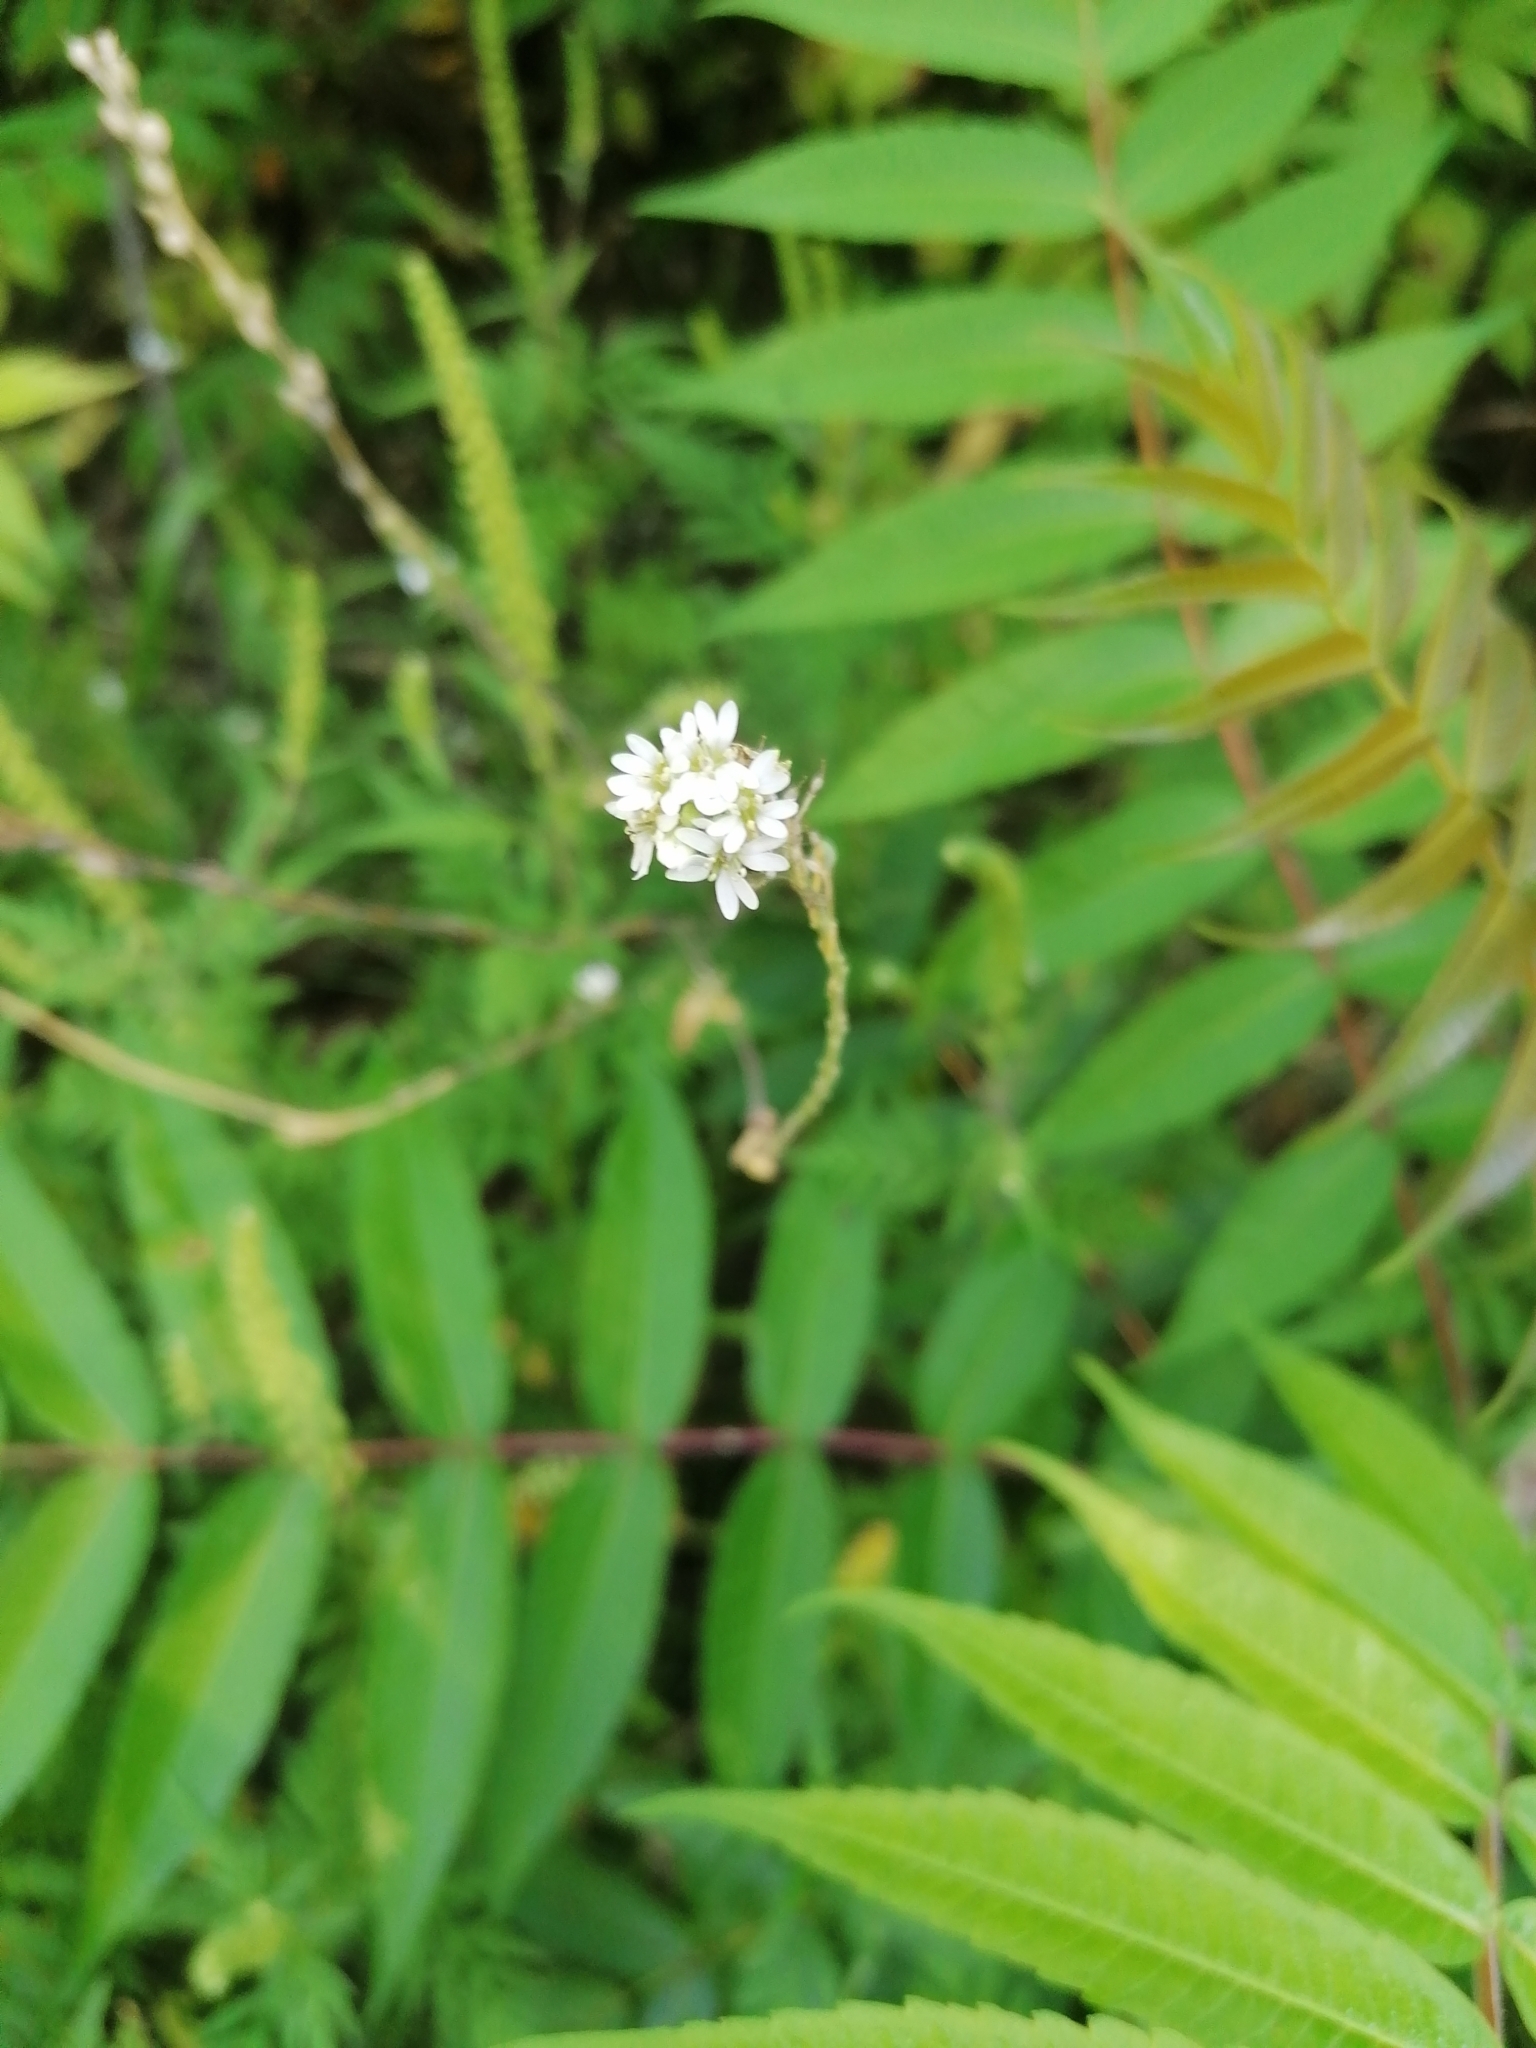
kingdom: Plantae
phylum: Tracheophyta
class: Magnoliopsida
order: Brassicales
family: Brassicaceae
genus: Berteroa
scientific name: Berteroa incana
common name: Hoary alison
